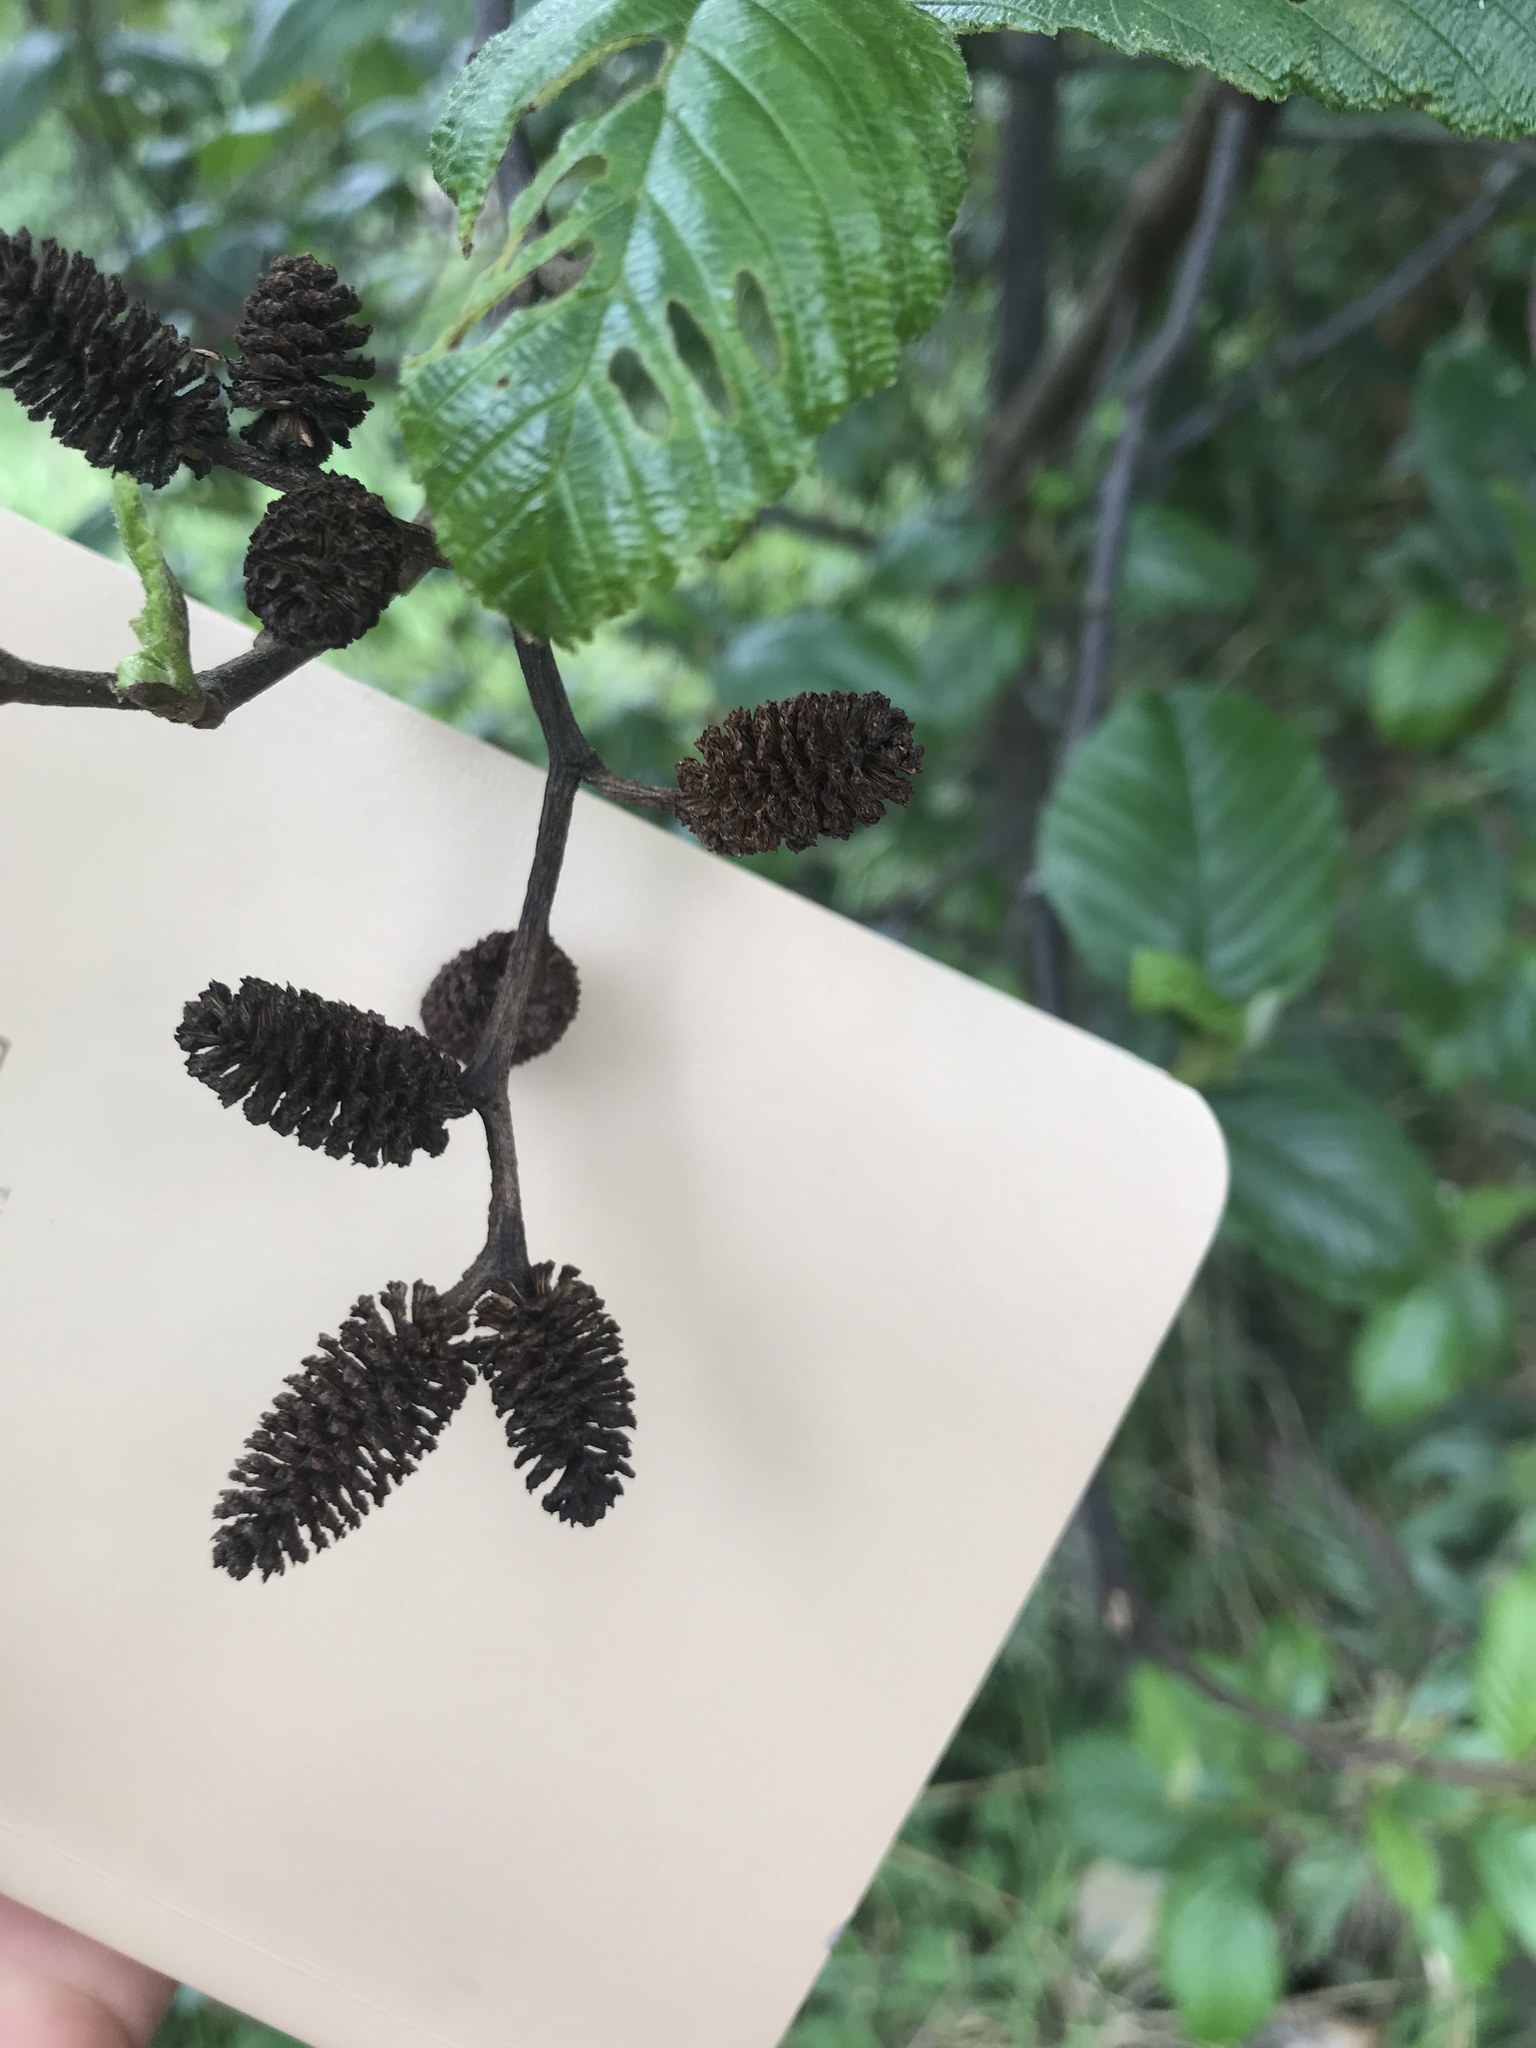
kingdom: Plantae
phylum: Tracheophyta
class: Magnoliopsida
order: Fagales
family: Betulaceae
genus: Alnus
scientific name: Alnus acuminata
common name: Alder
